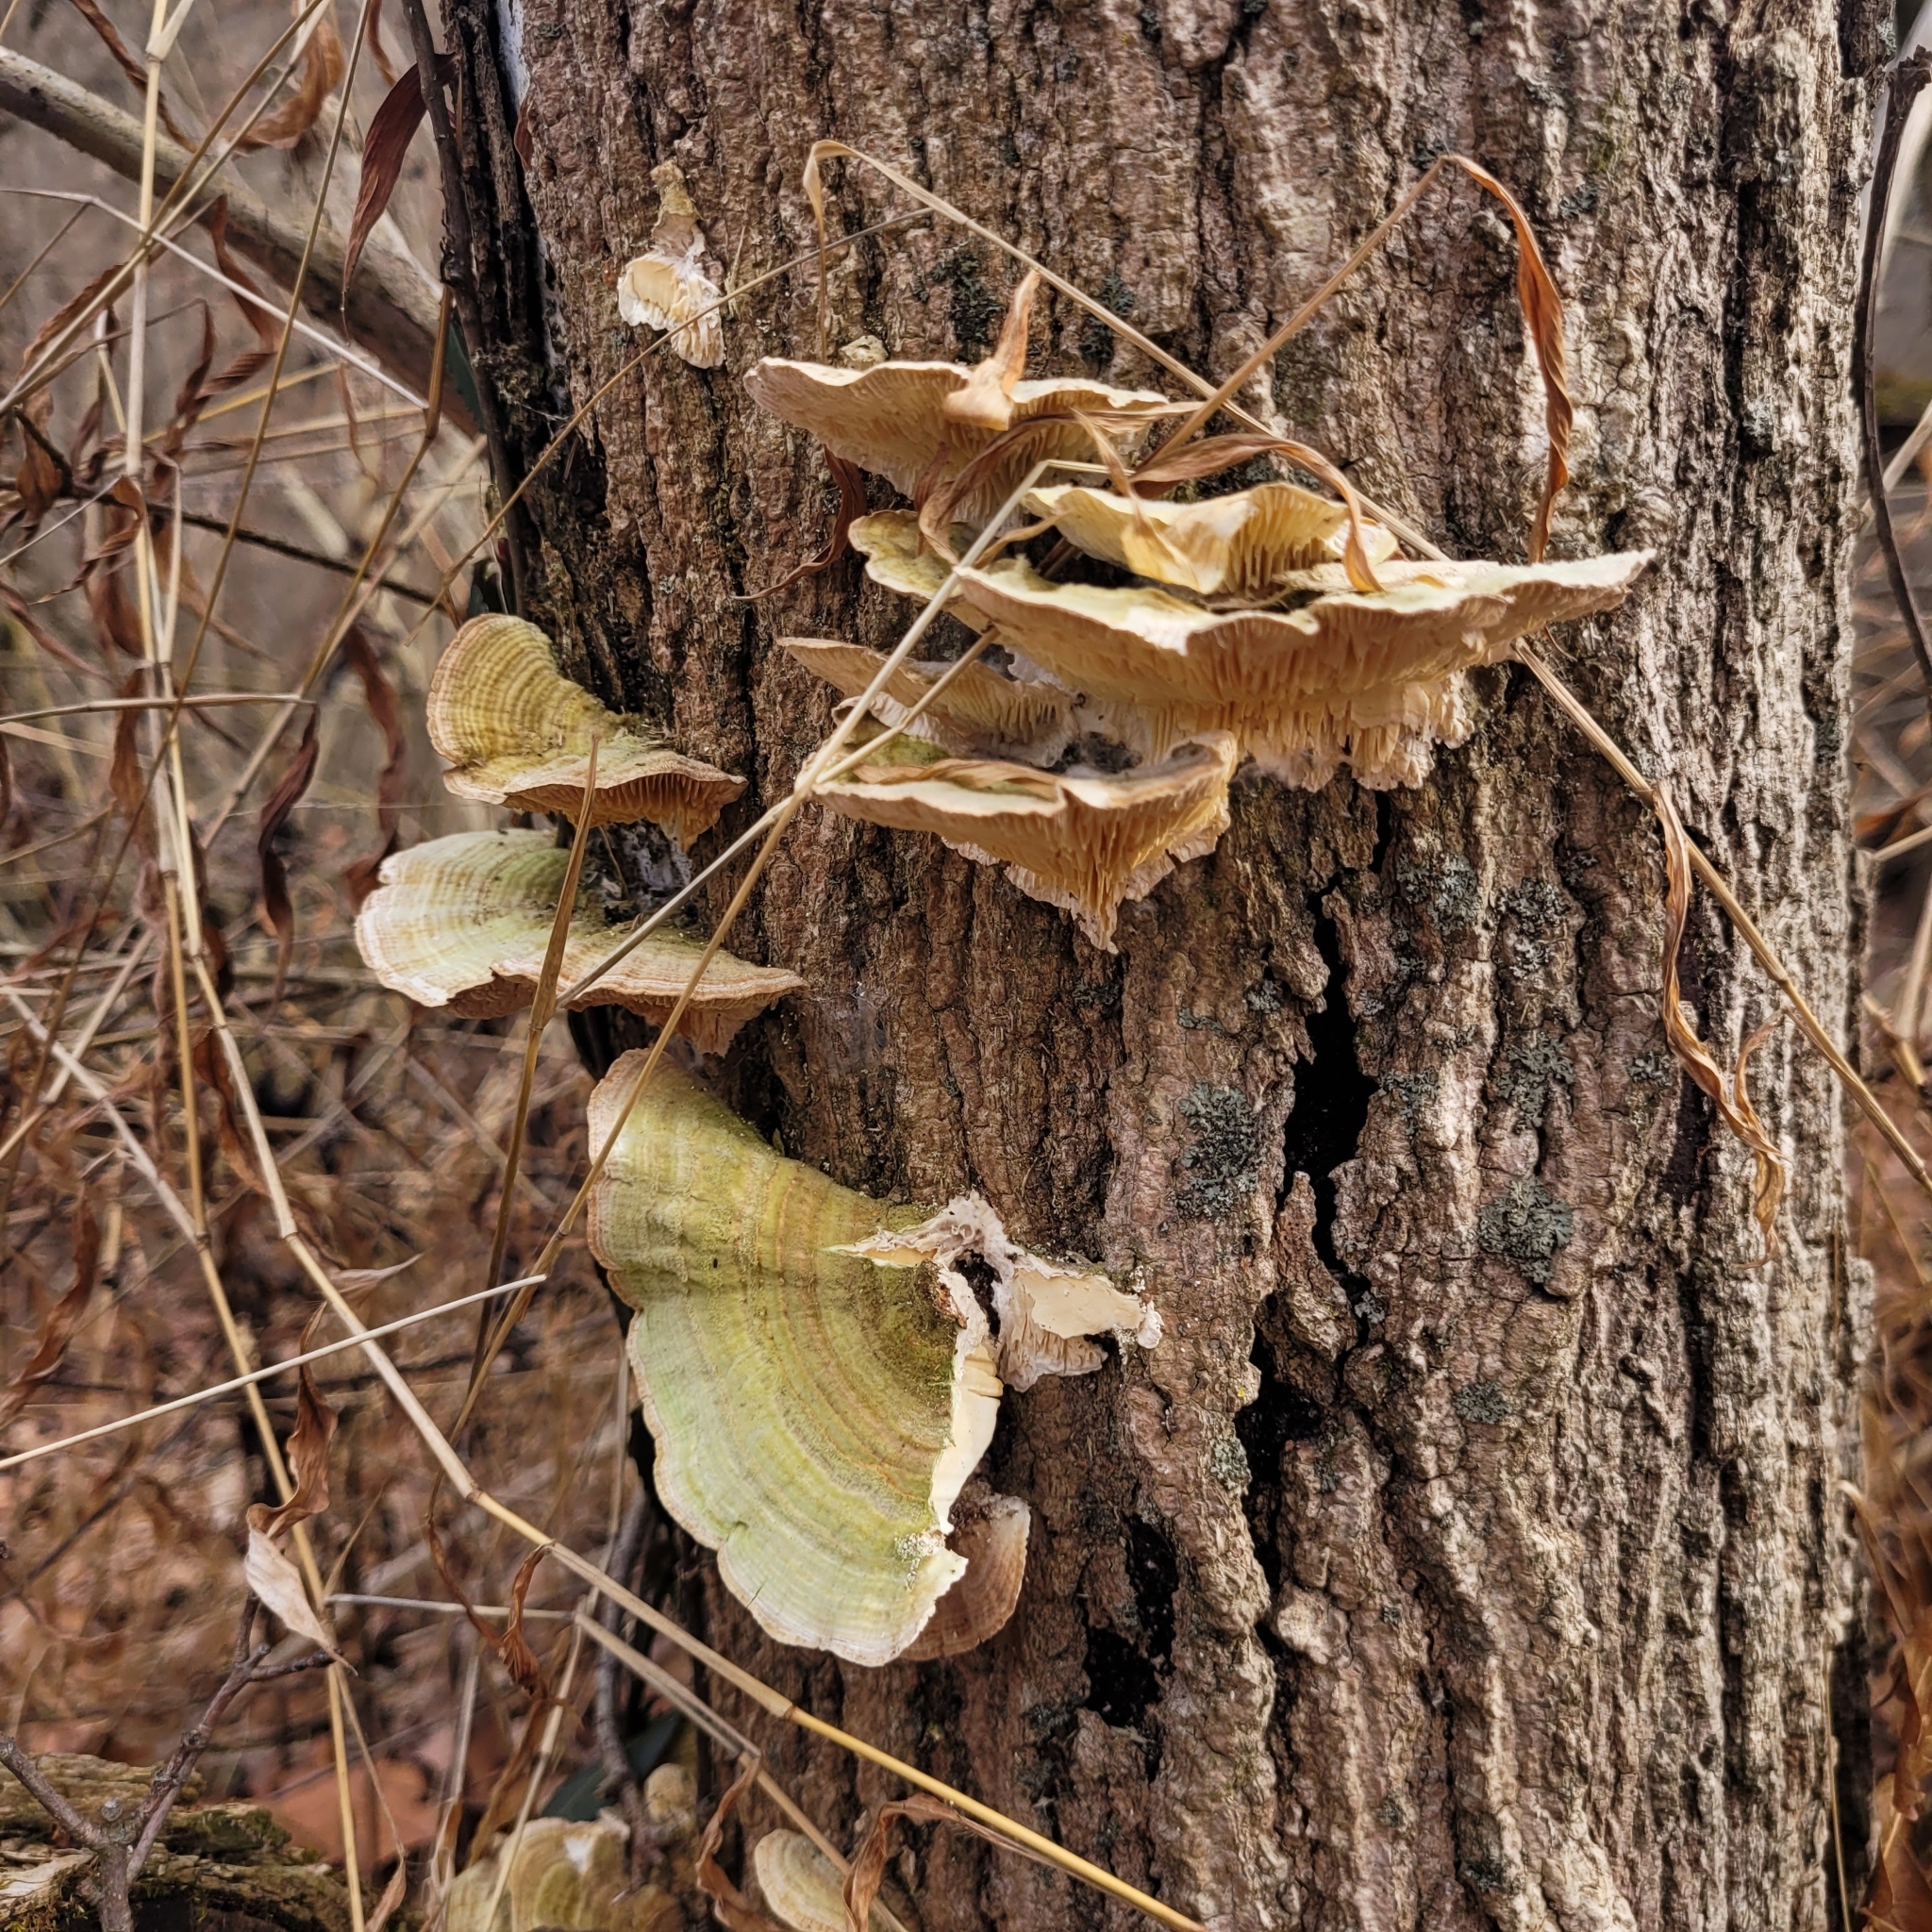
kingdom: Fungi
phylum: Basidiomycota
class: Agaricomycetes
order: Polyporales
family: Polyporaceae
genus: Lenzites
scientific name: Lenzites betulinus
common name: Birch mazegill
